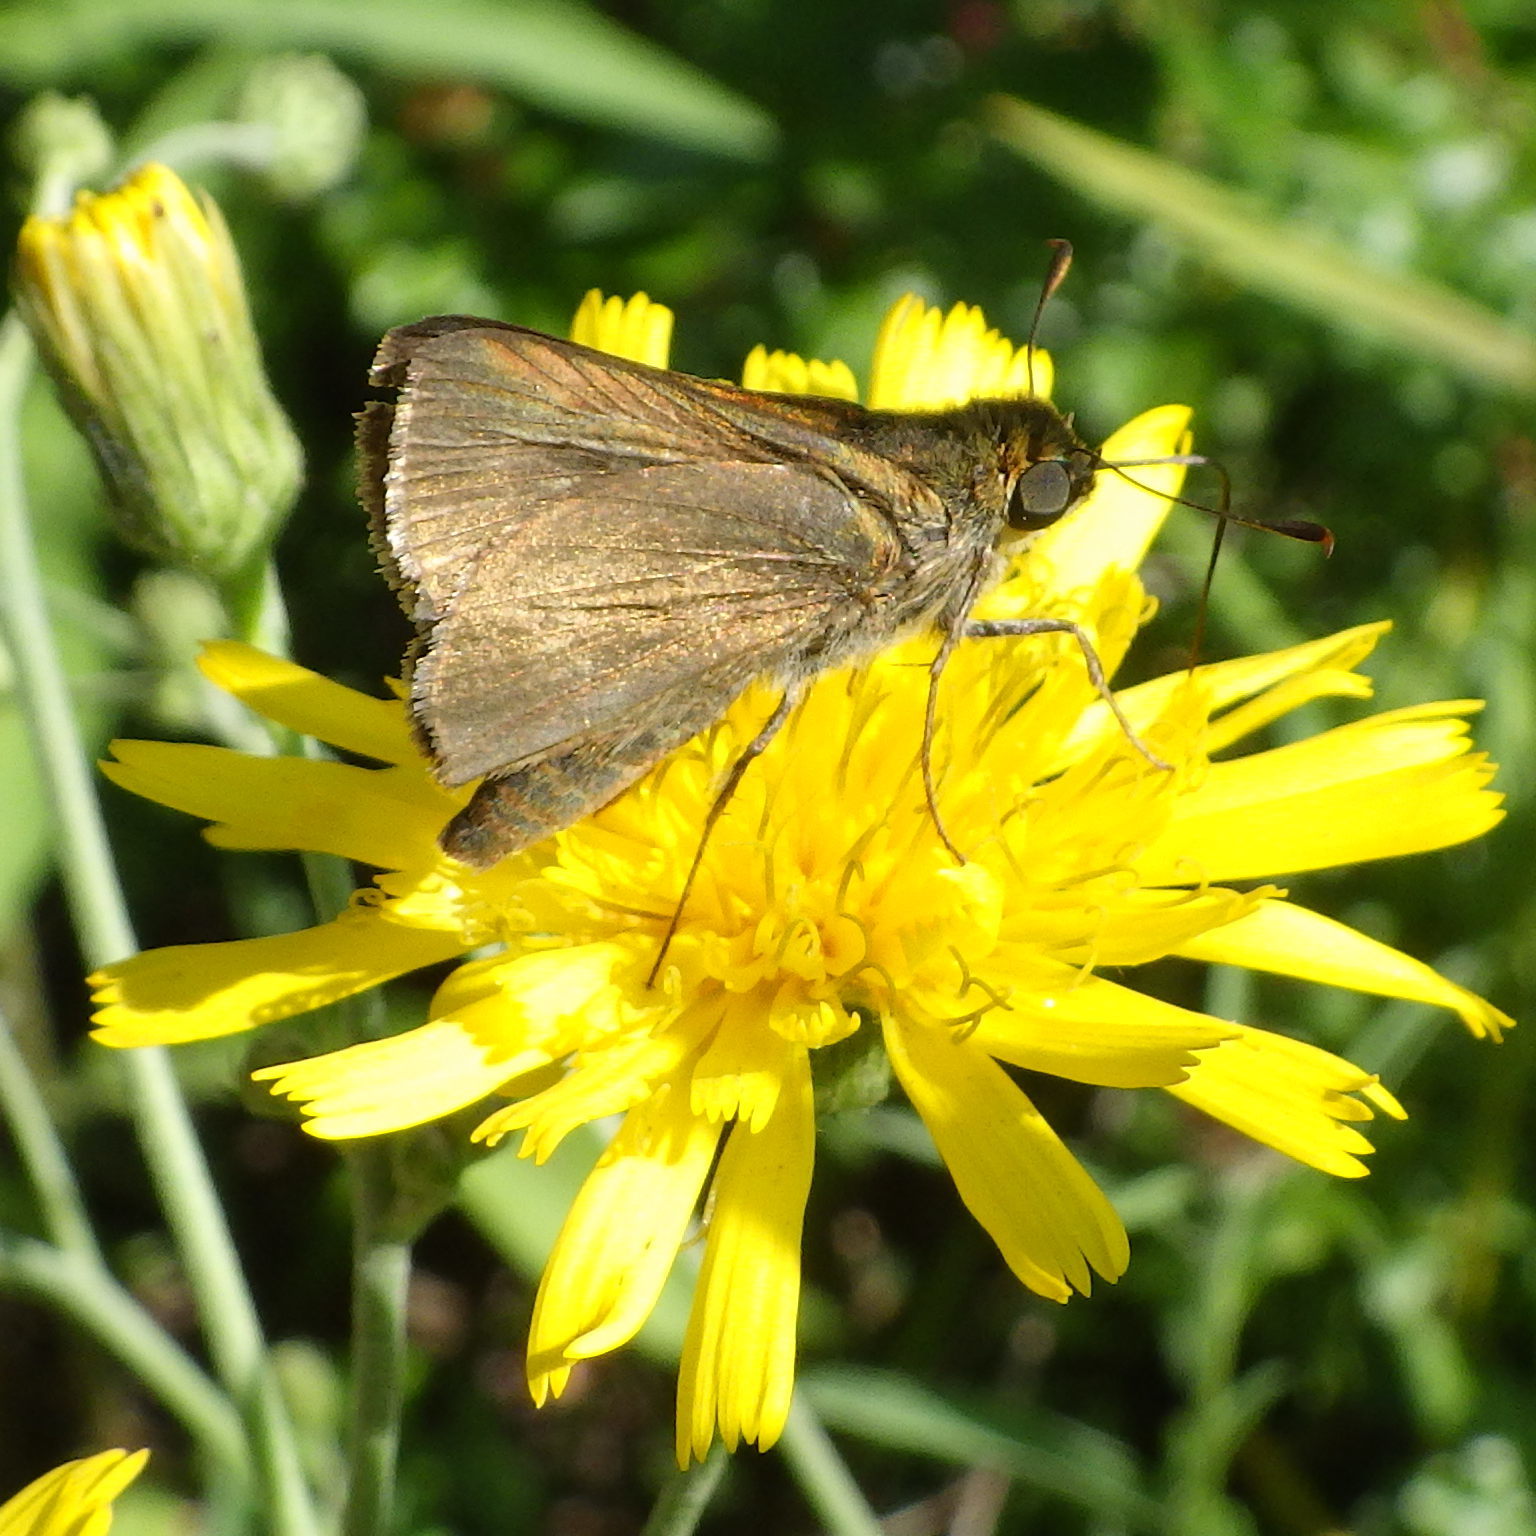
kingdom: Animalia
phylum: Arthropoda
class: Insecta
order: Lepidoptera
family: Hesperiidae
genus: Euphyes
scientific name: Euphyes vestris
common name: Dun skipper
